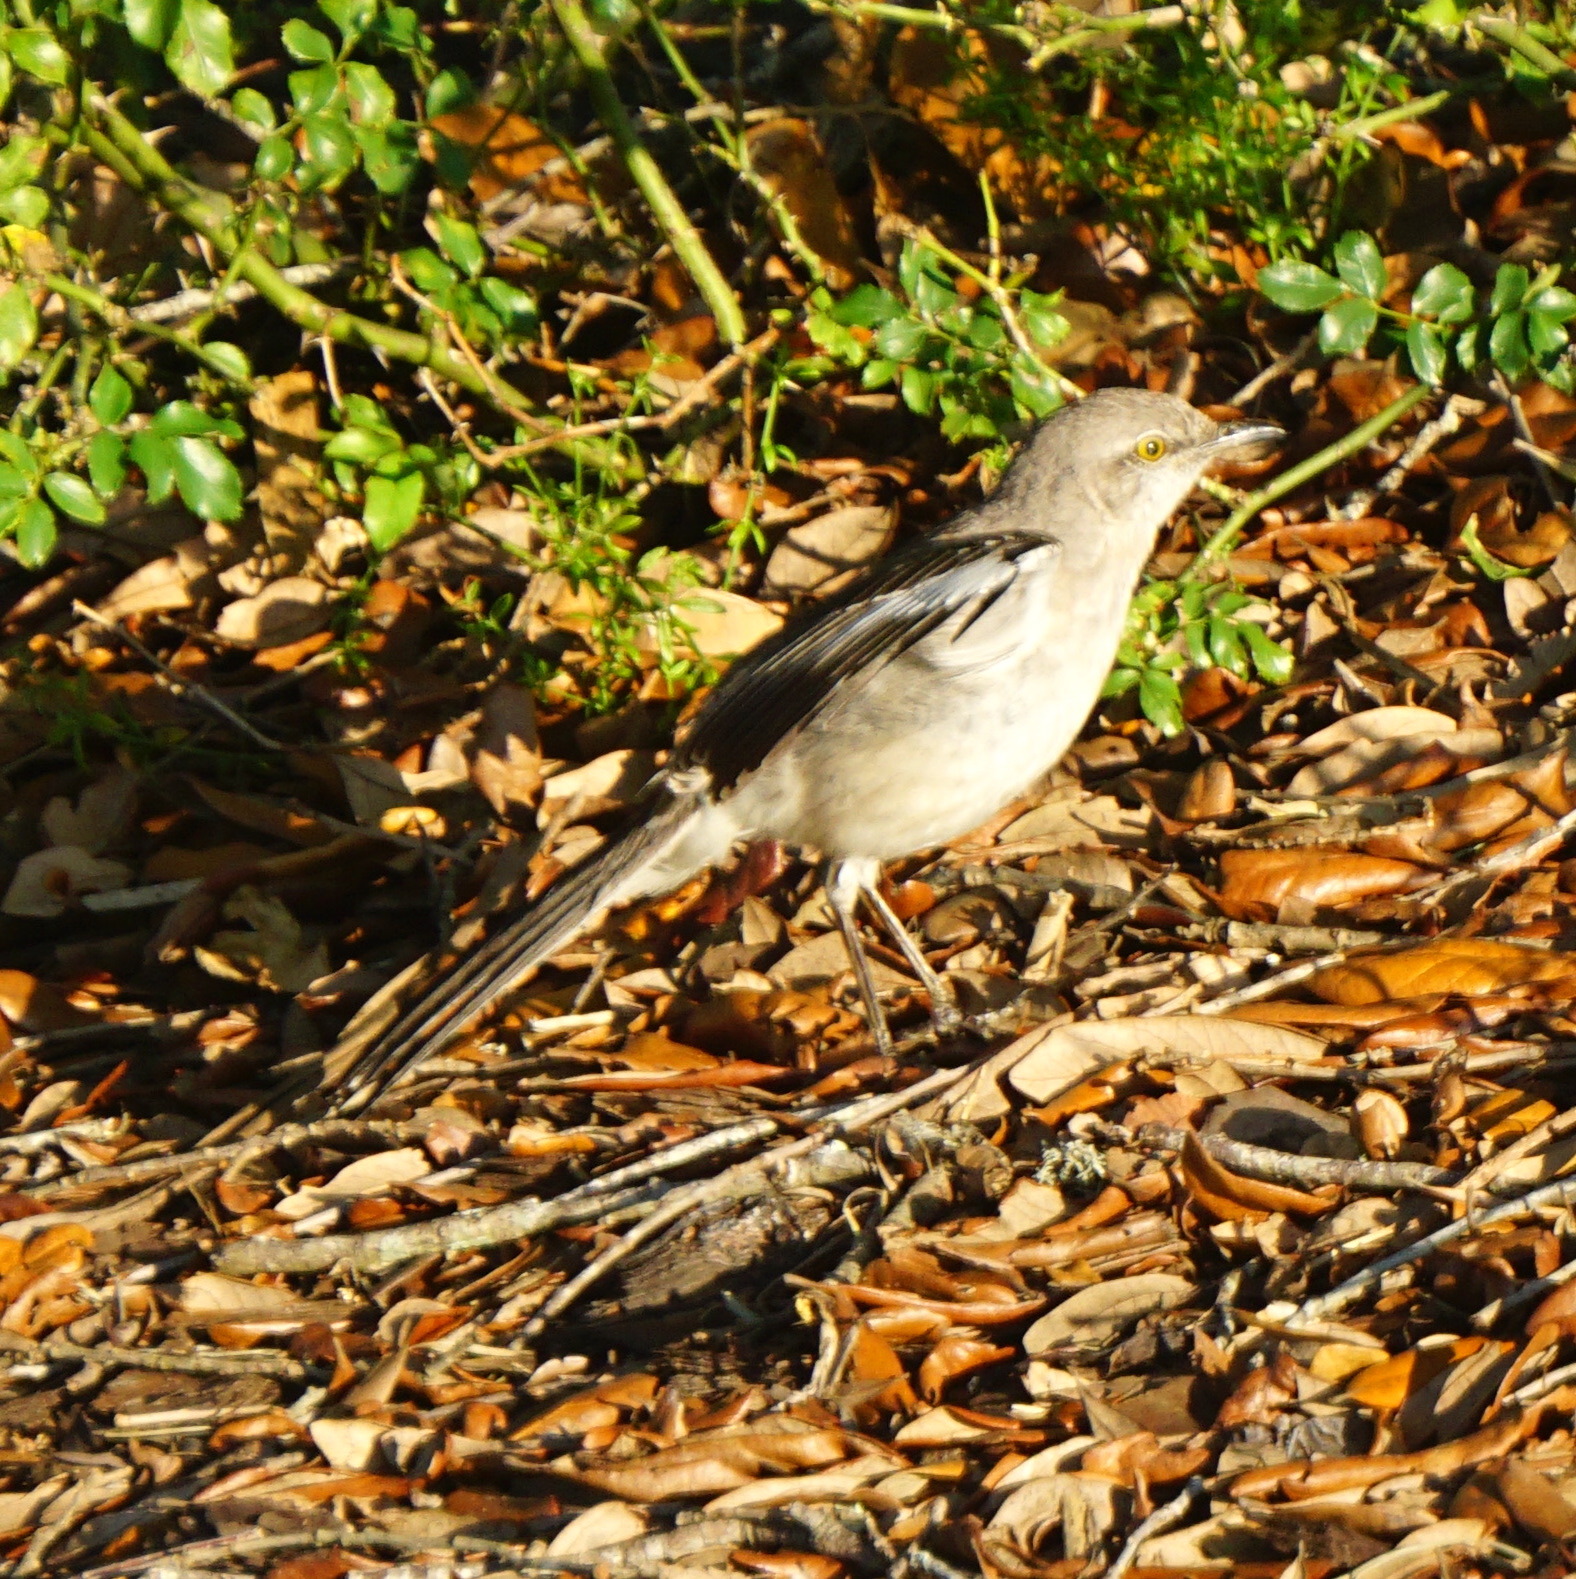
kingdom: Animalia
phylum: Chordata
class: Aves
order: Passeriformes
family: Mimidae
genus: Mimus
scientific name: Mimus polyglottos
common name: Northern mockingbird
